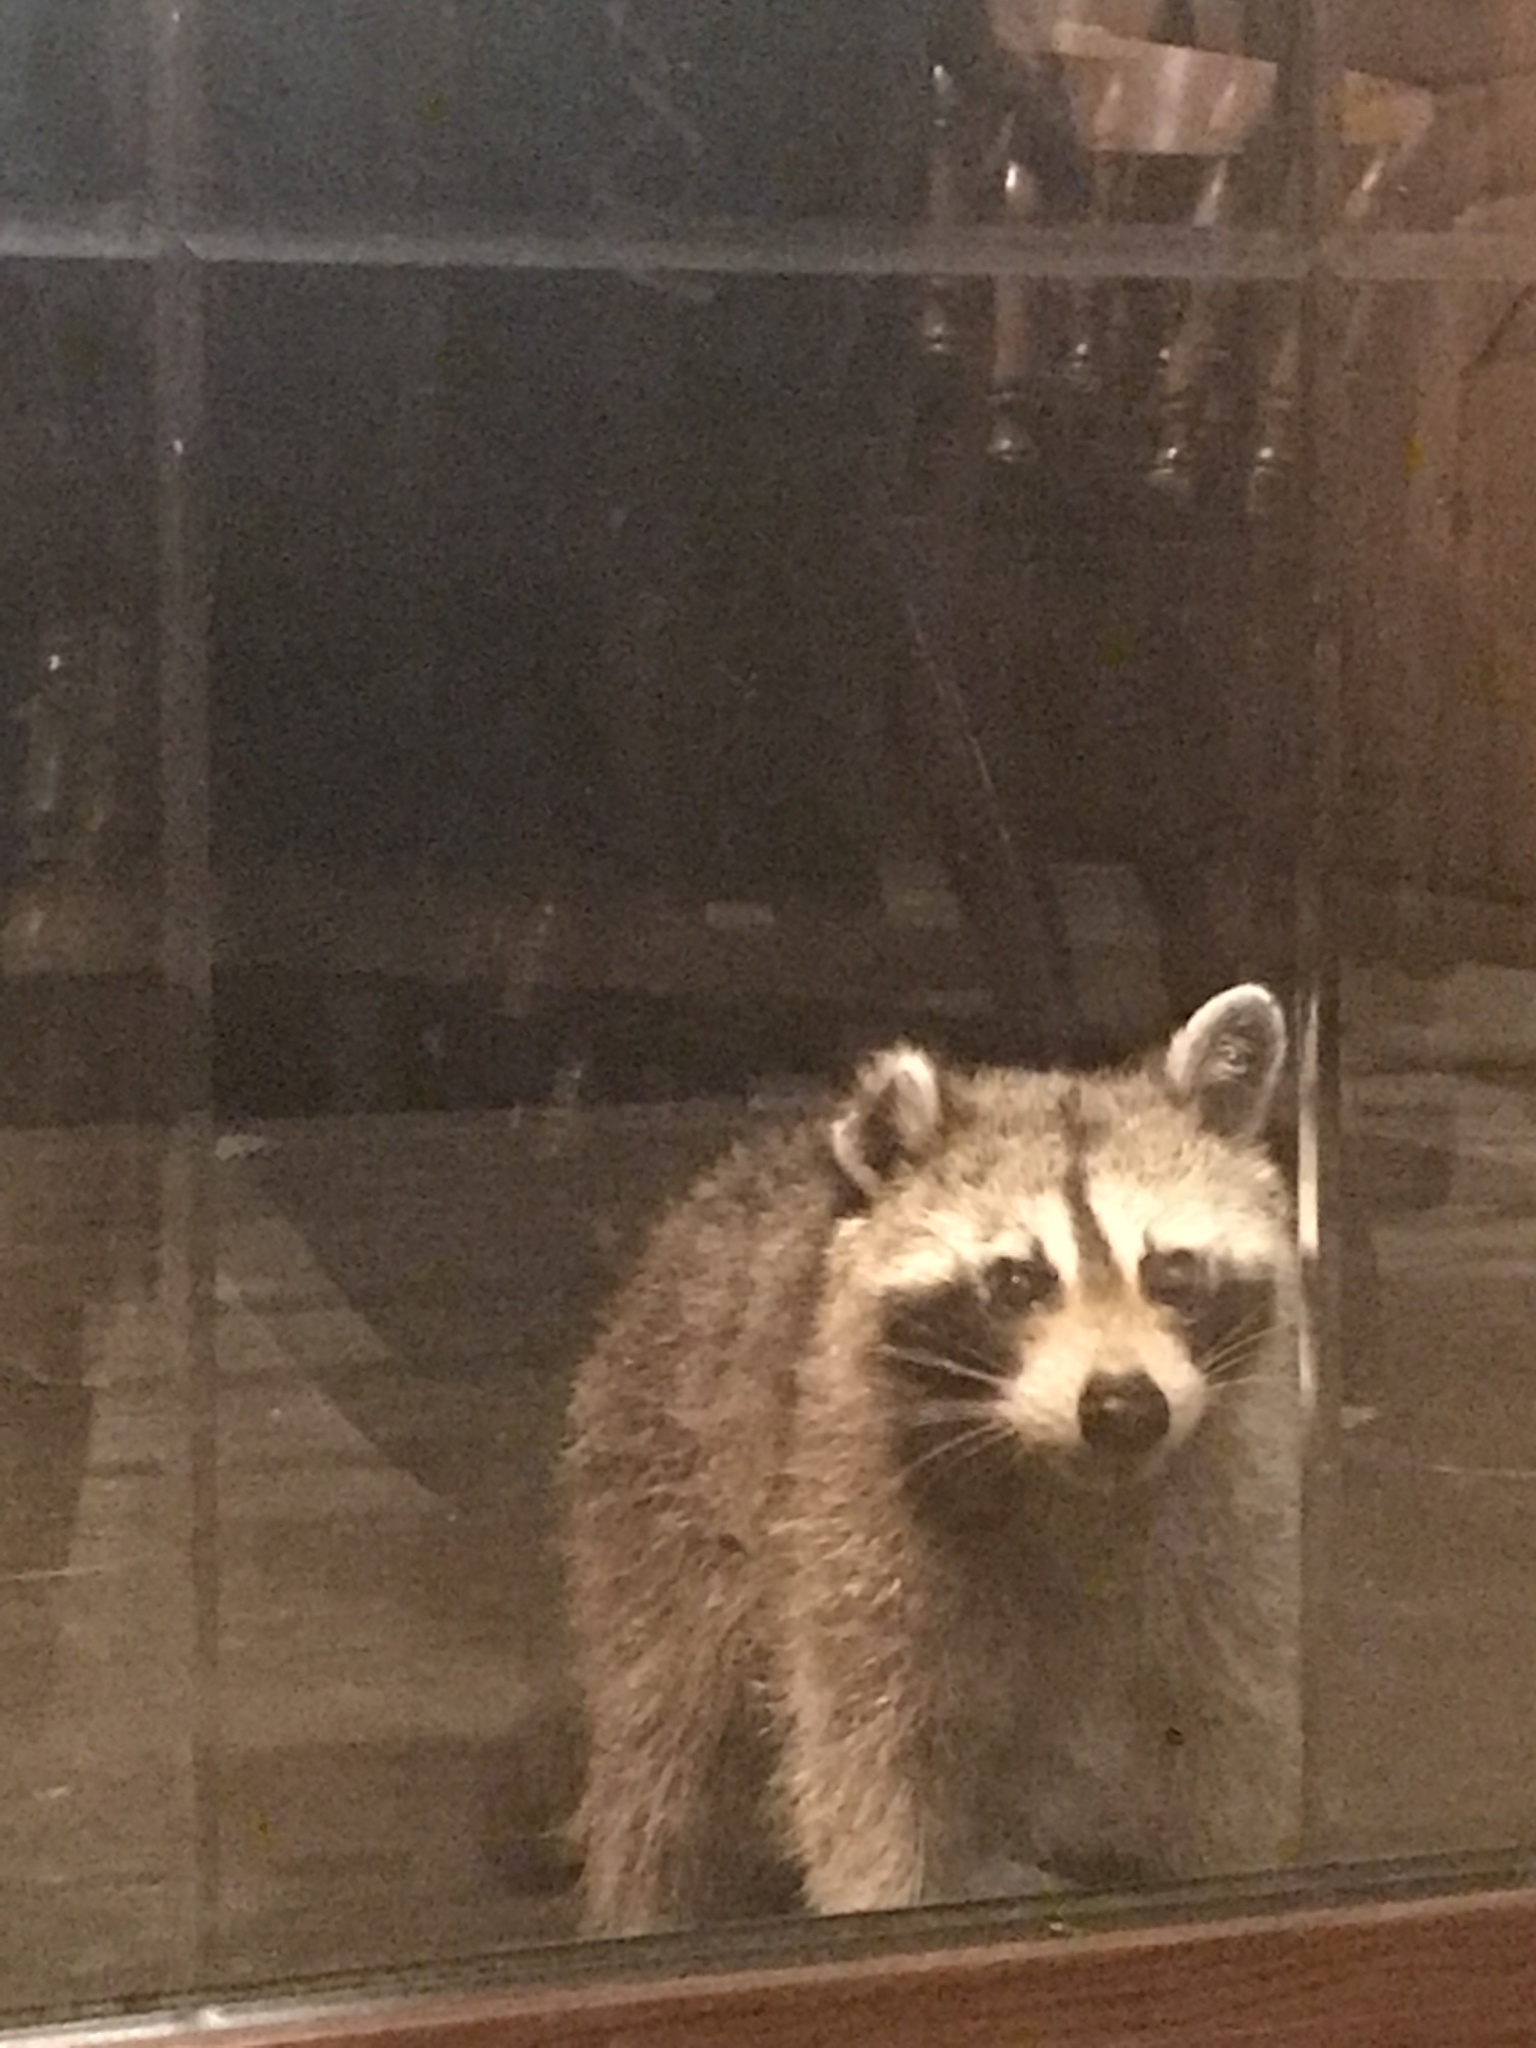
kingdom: Animalia
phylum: Chordata
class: Mammalia
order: Carnivora
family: Procyonidae
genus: Procyon
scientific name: Procyon lotor
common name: Raccoon
